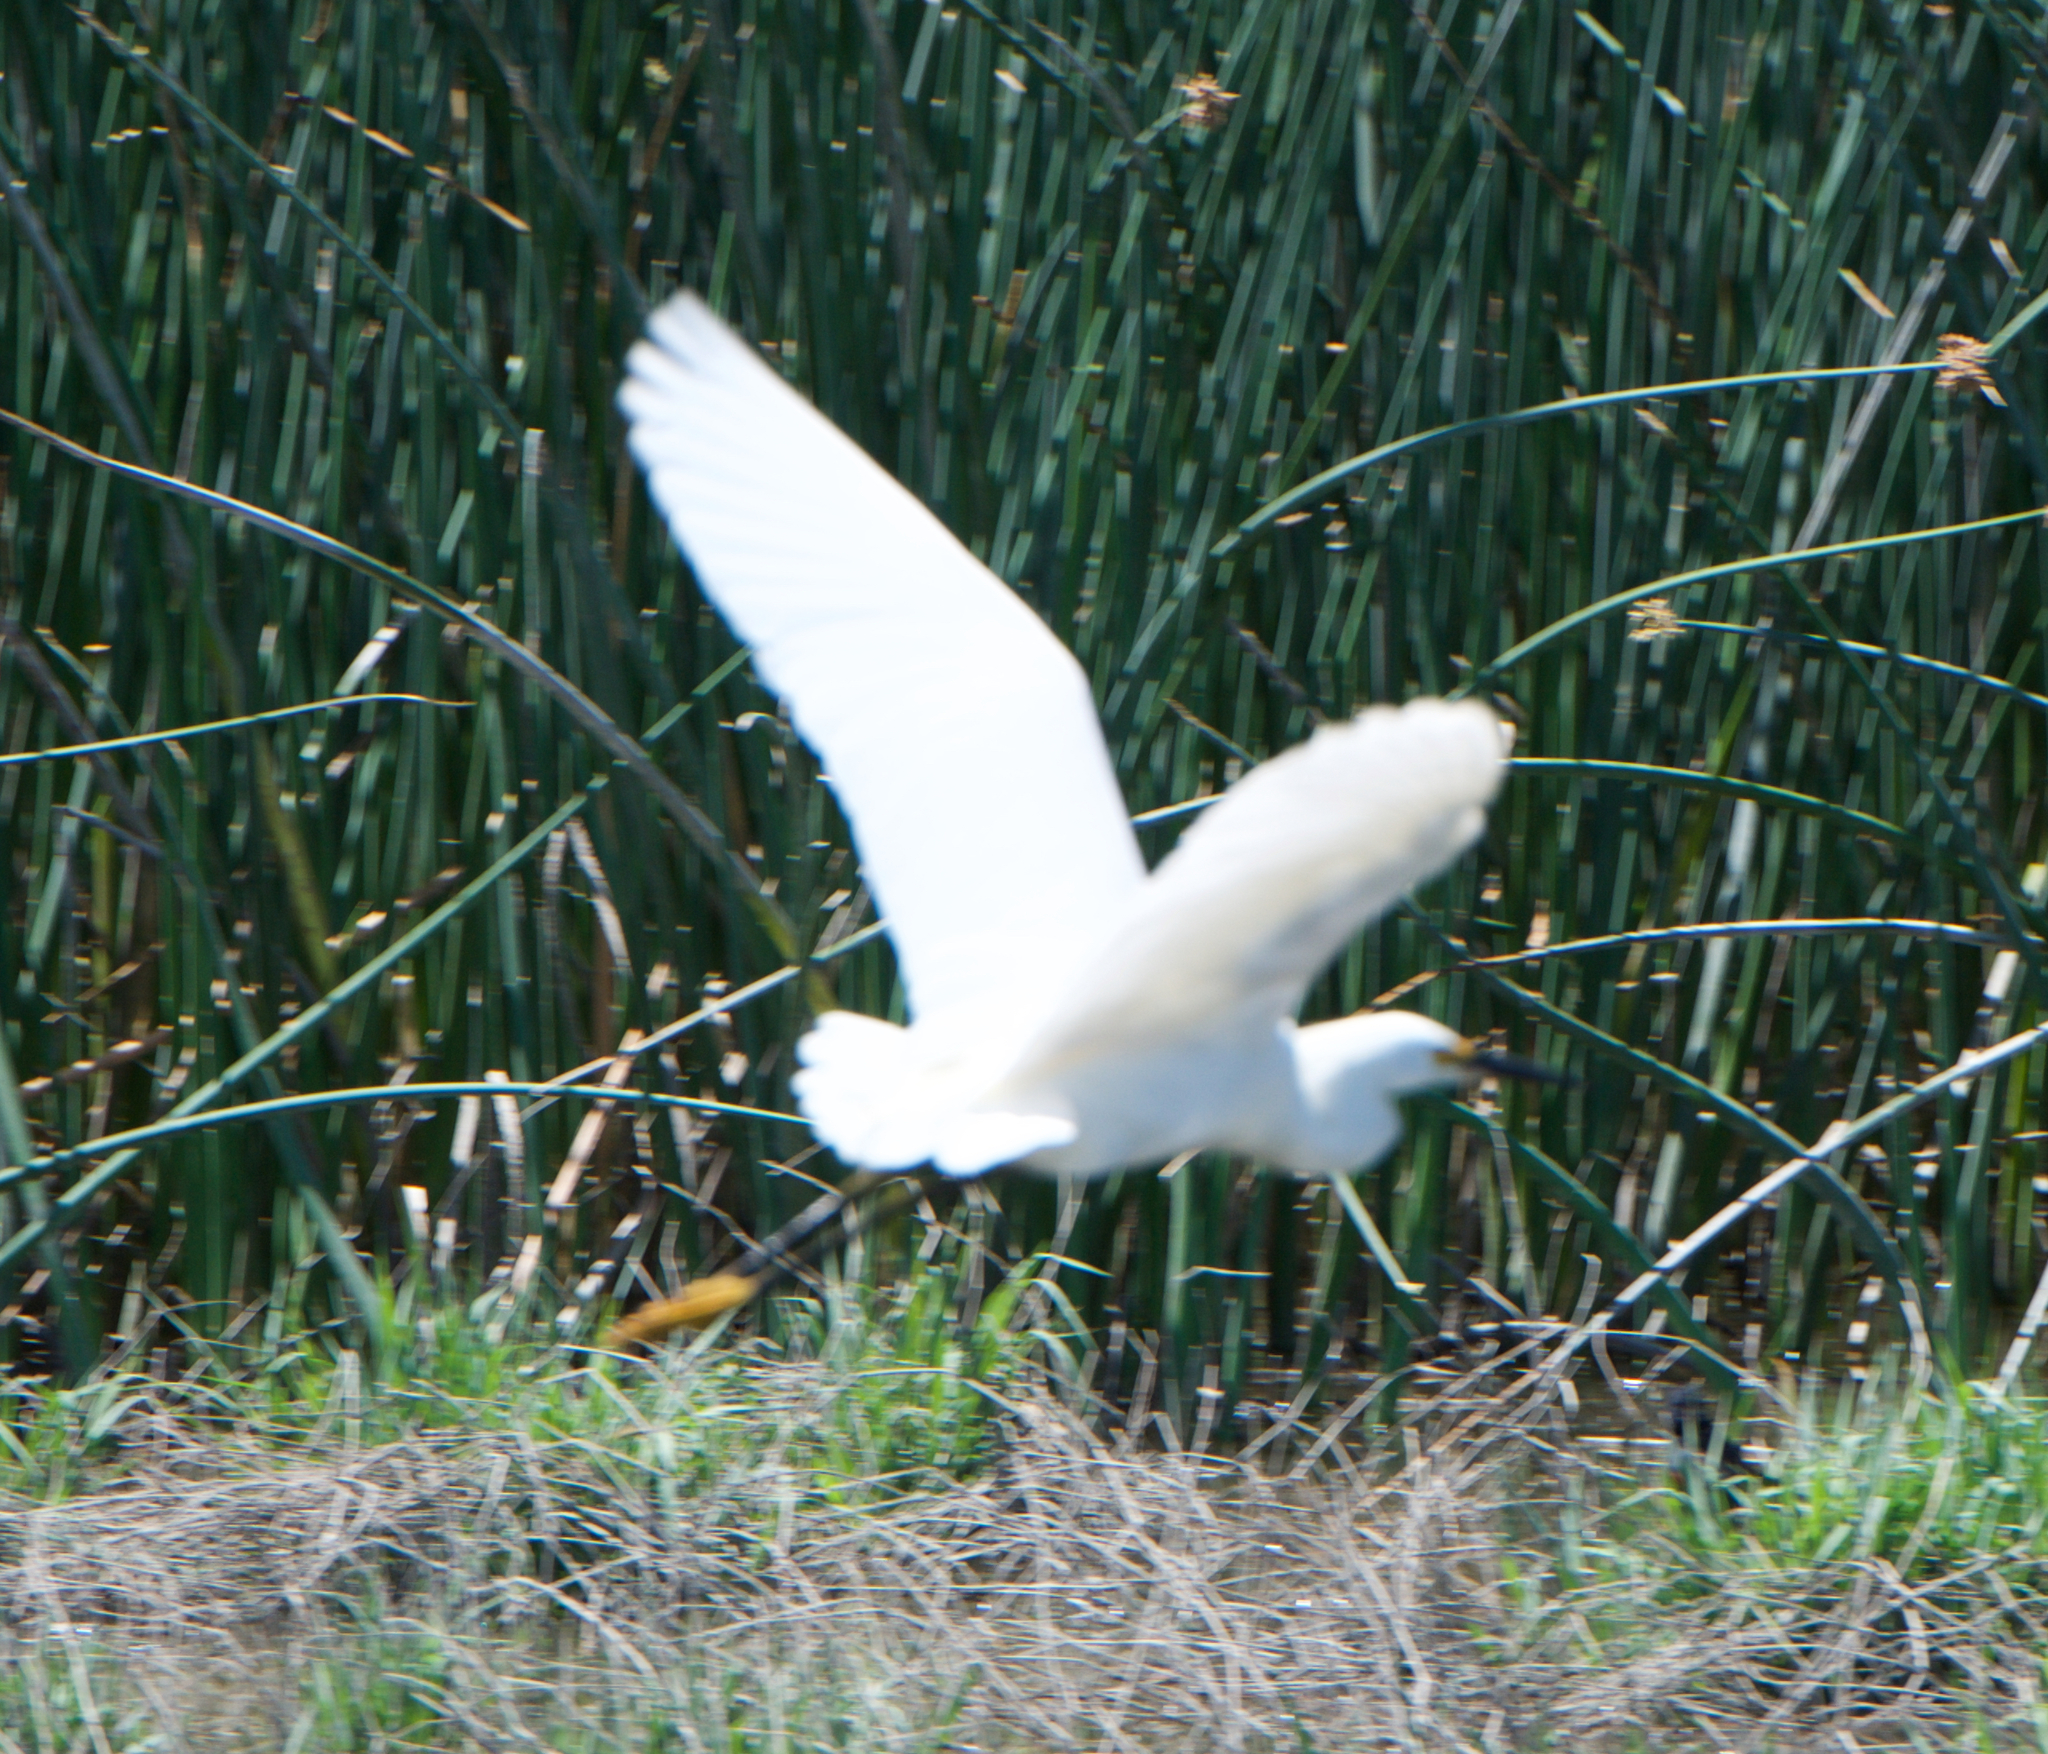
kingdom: Animalia
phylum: Chordata
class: Aves
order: Pelecaniformes
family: Ardeidae
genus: Egretta
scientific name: Egretta thula
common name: Snowy egret
